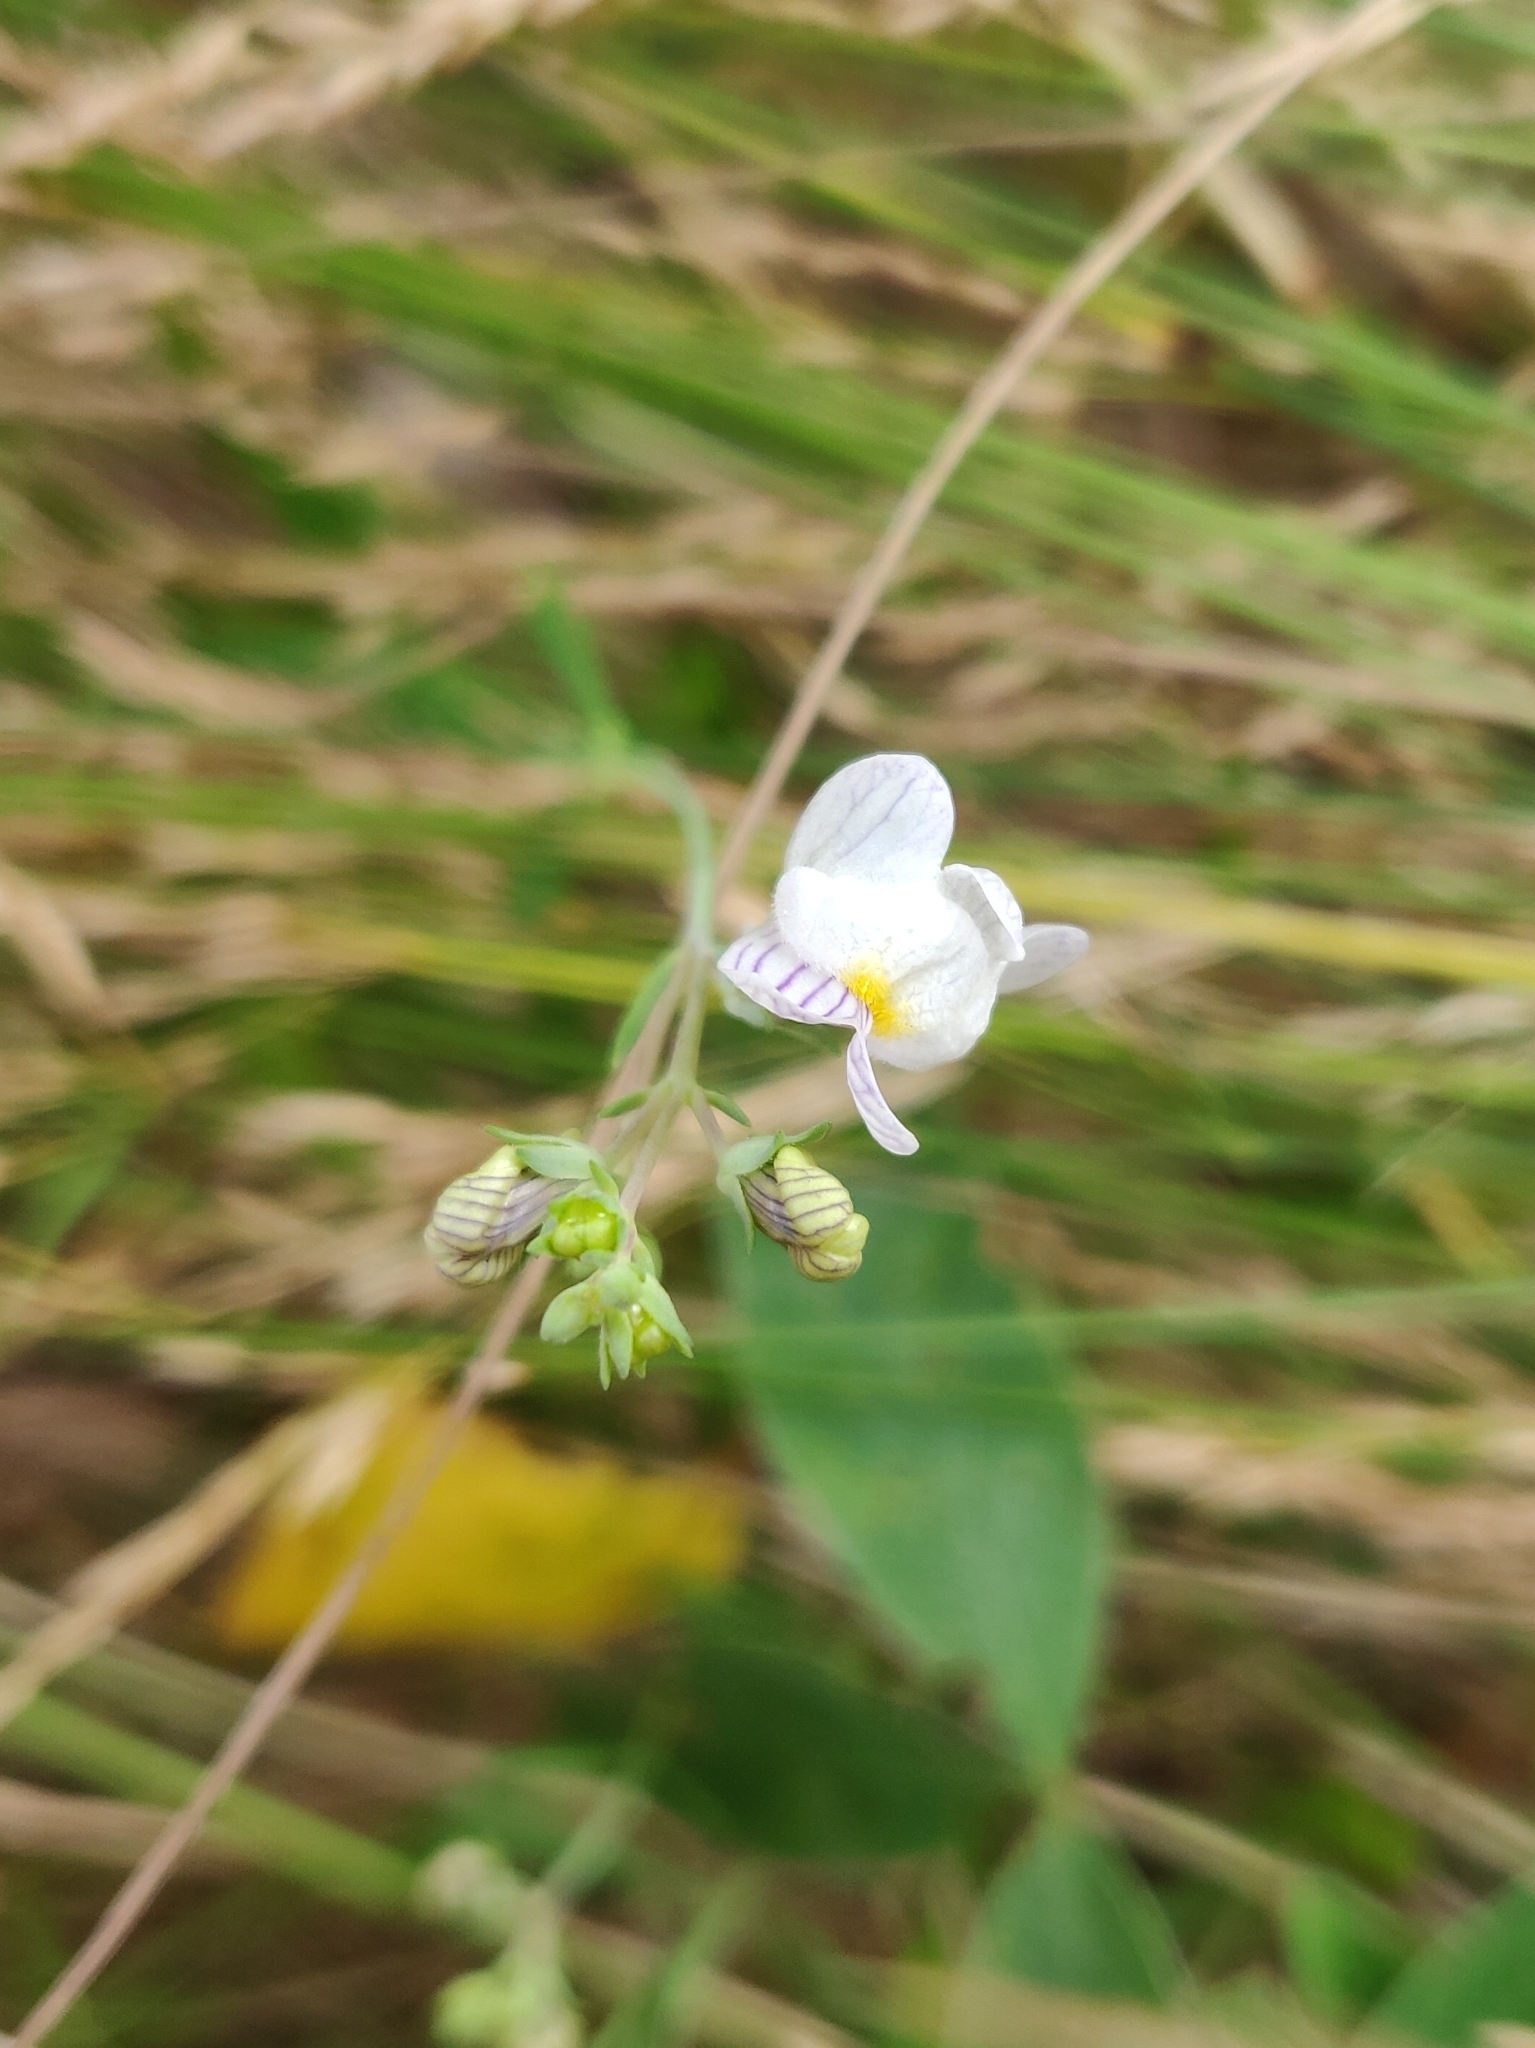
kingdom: Plantae
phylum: Tracheophyta
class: Magnoliopsida
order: Lamiales
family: Plantaginaceae
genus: Linaria
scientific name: Linaria repens
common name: Pale toadflax
